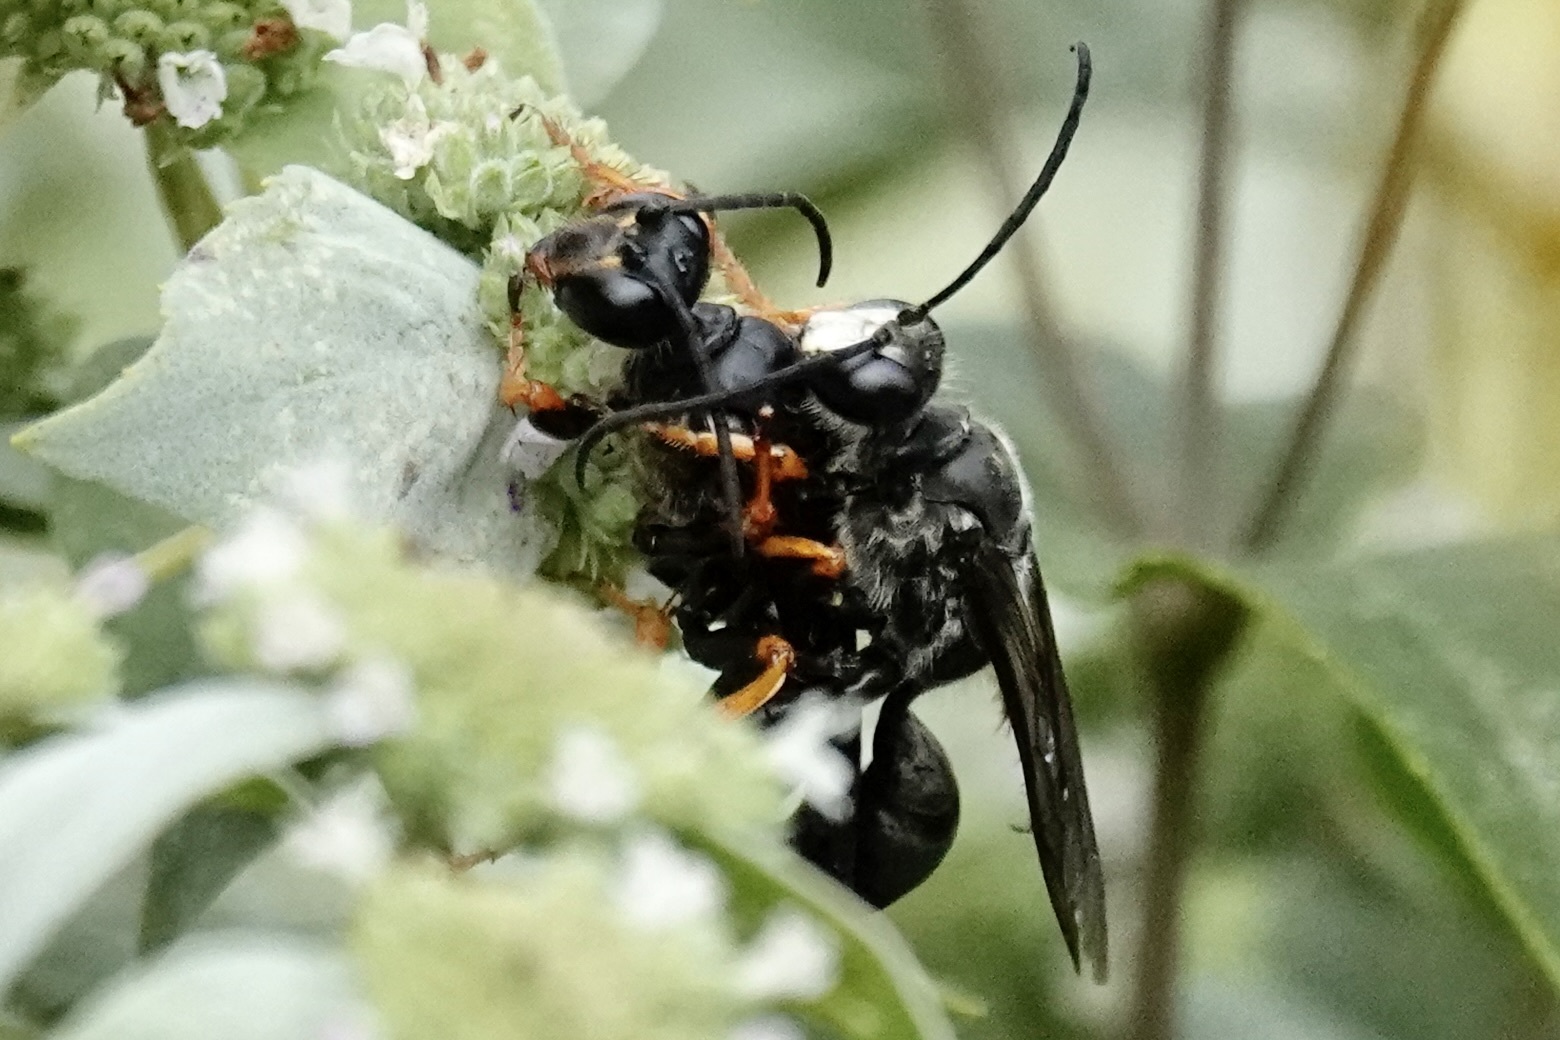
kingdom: Animalia
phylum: Arthropoda
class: Insecta
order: Hymenoptera
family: Sphecidae
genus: Sphex
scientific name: Sphex nudus
